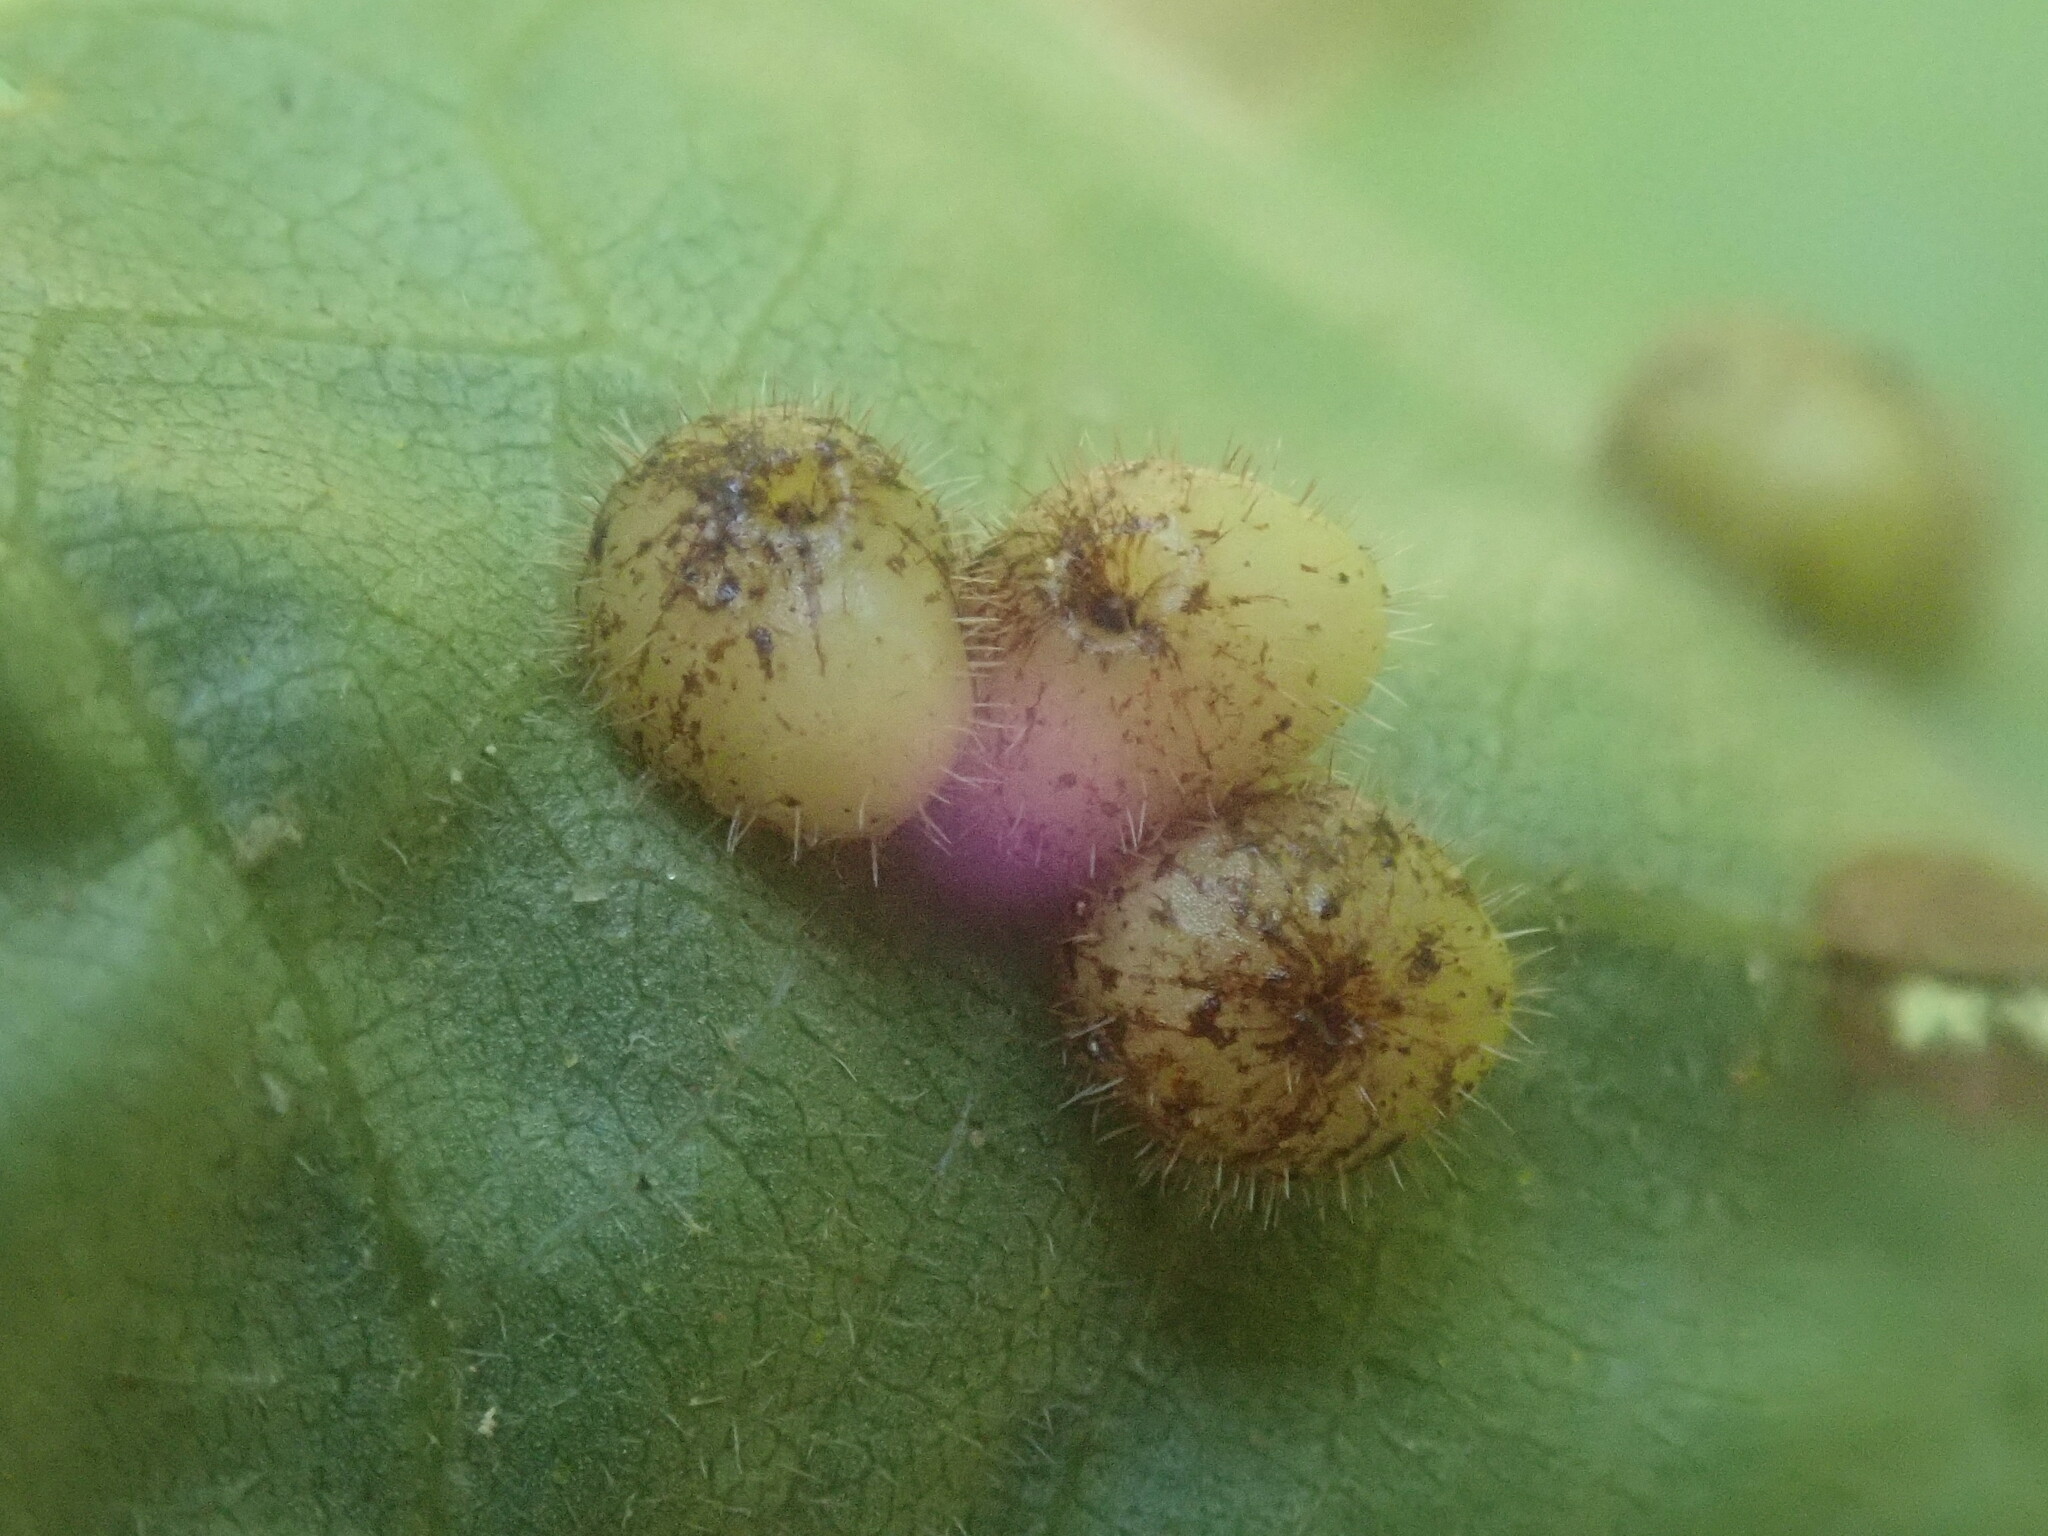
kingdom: Animalia
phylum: Arthropoda
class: Insecta
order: Diptera
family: Cecidomyiidae
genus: Caryomyia
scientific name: Caryomyia thompsoni
